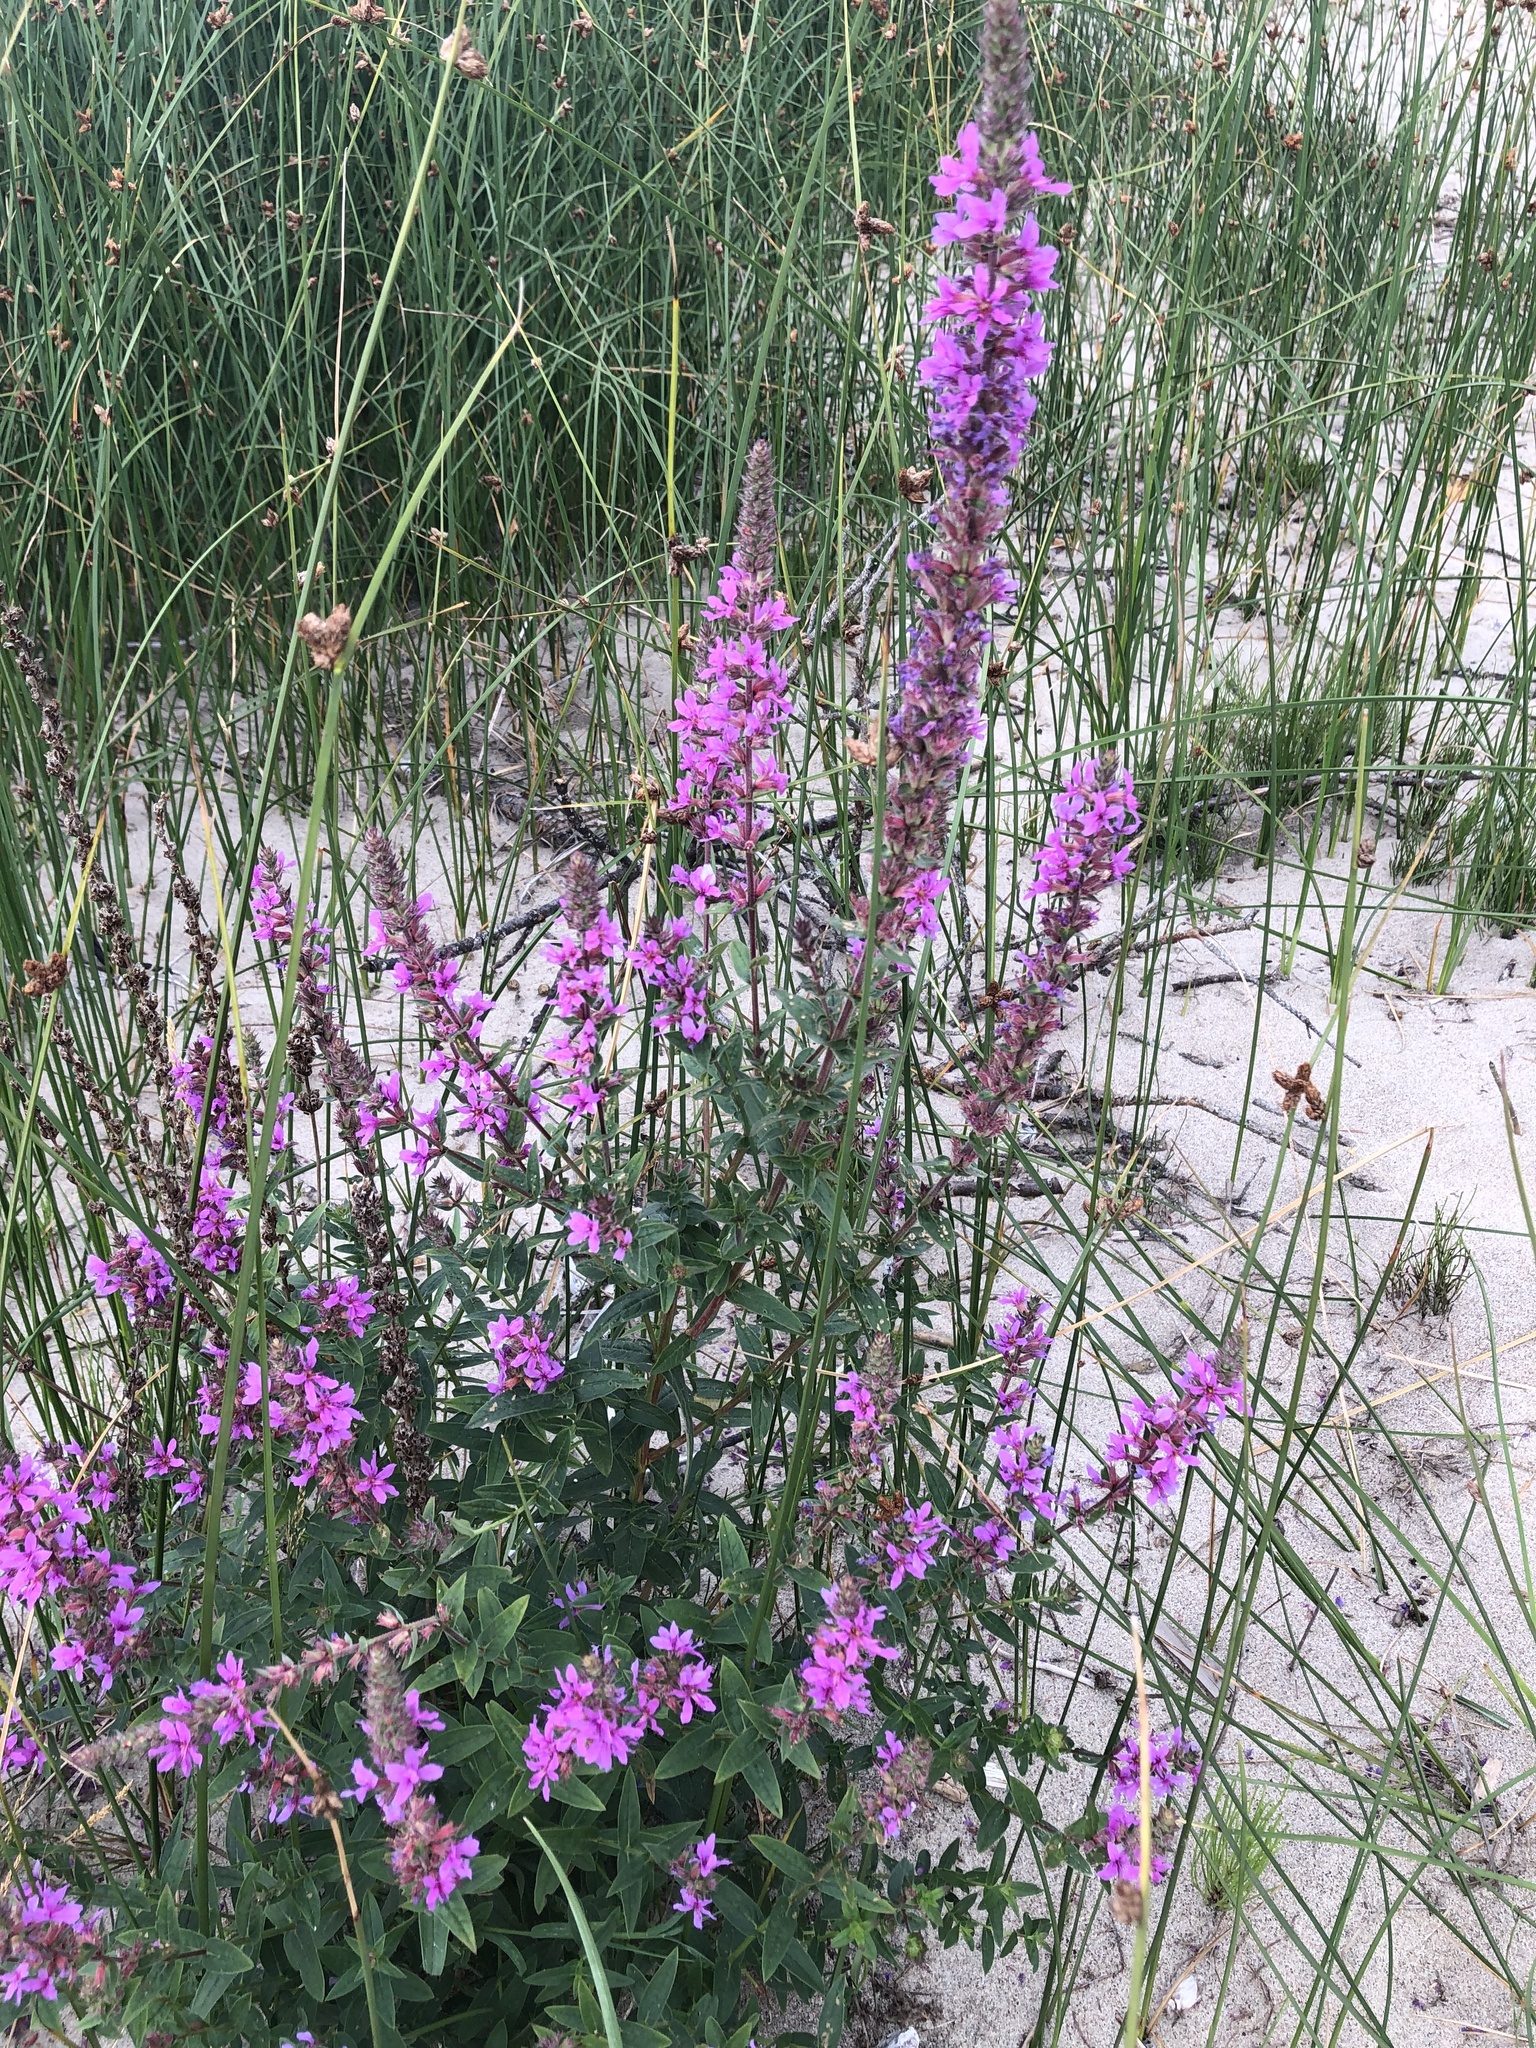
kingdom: Plantae
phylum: Tracheophyta
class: Magnoliopsida
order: Myrtales
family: Lythraceae
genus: Lythrum
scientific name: Lythrum salicaria
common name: Purple loosestrife
